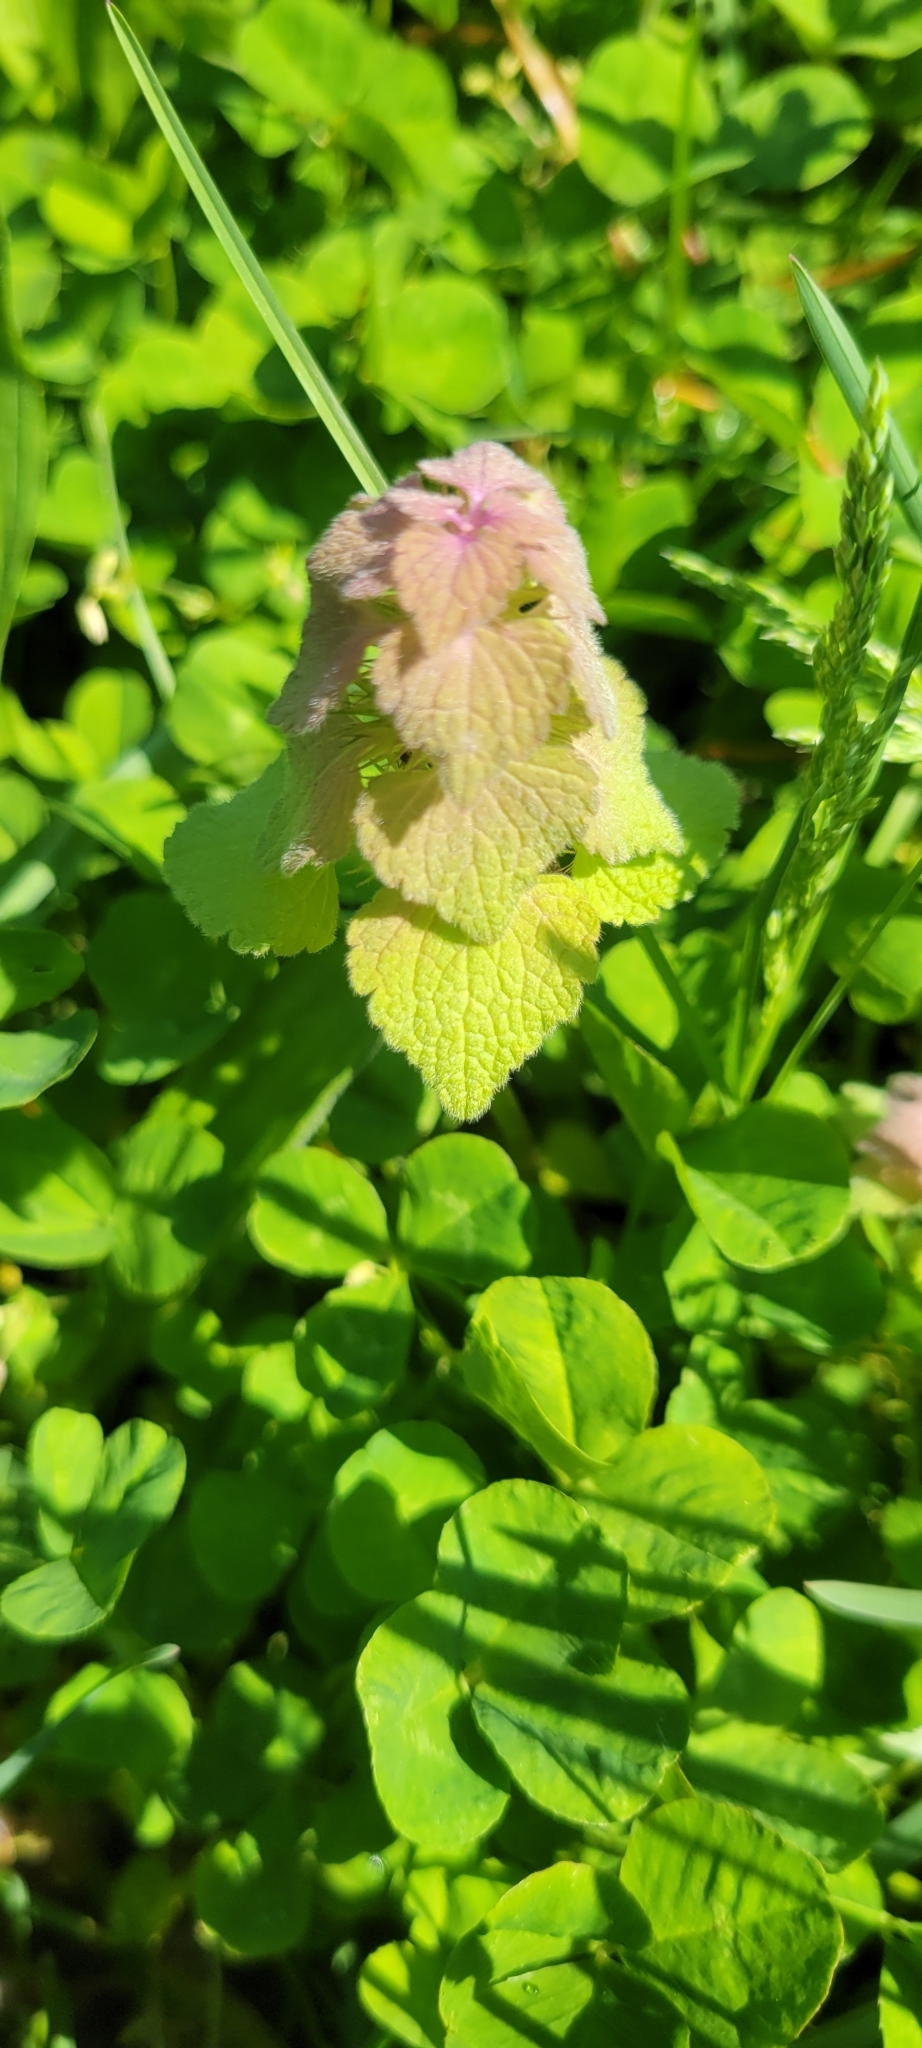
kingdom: Plantae
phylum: Tracheophyta
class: Magnoliopsida
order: Lamiales
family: Lamiaceae
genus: Lamium
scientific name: Lamium purpureum
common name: Red dead-nettle
